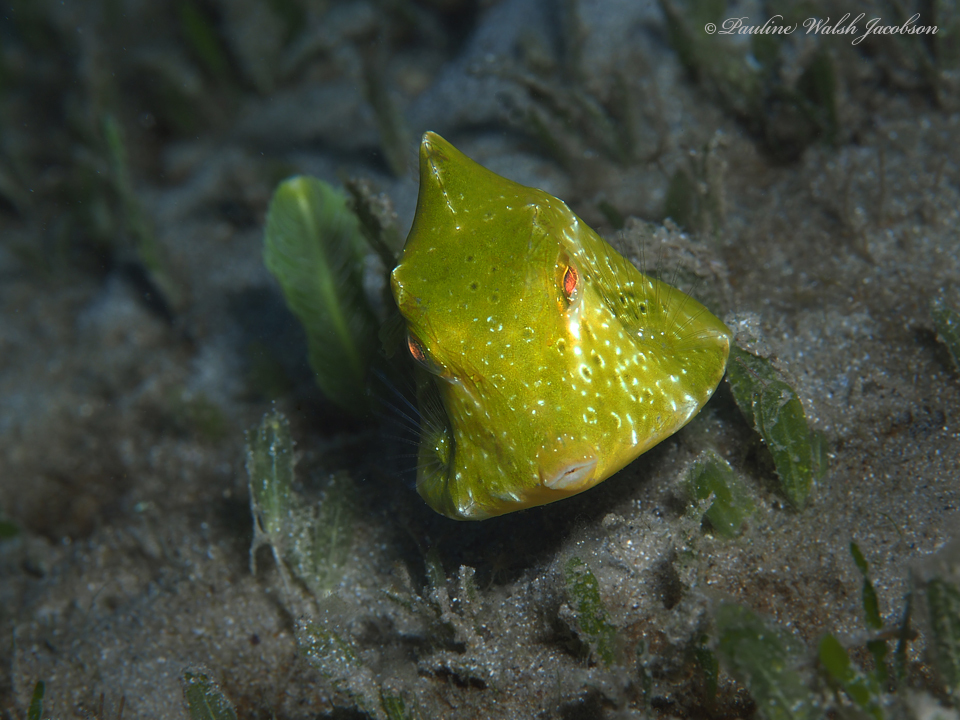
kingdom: Animalia
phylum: Chordata
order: Tetraodontiformes
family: Ostraciidae
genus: Lactophrys
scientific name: Lactophrys trigonus
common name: Buffalo trunkfish
